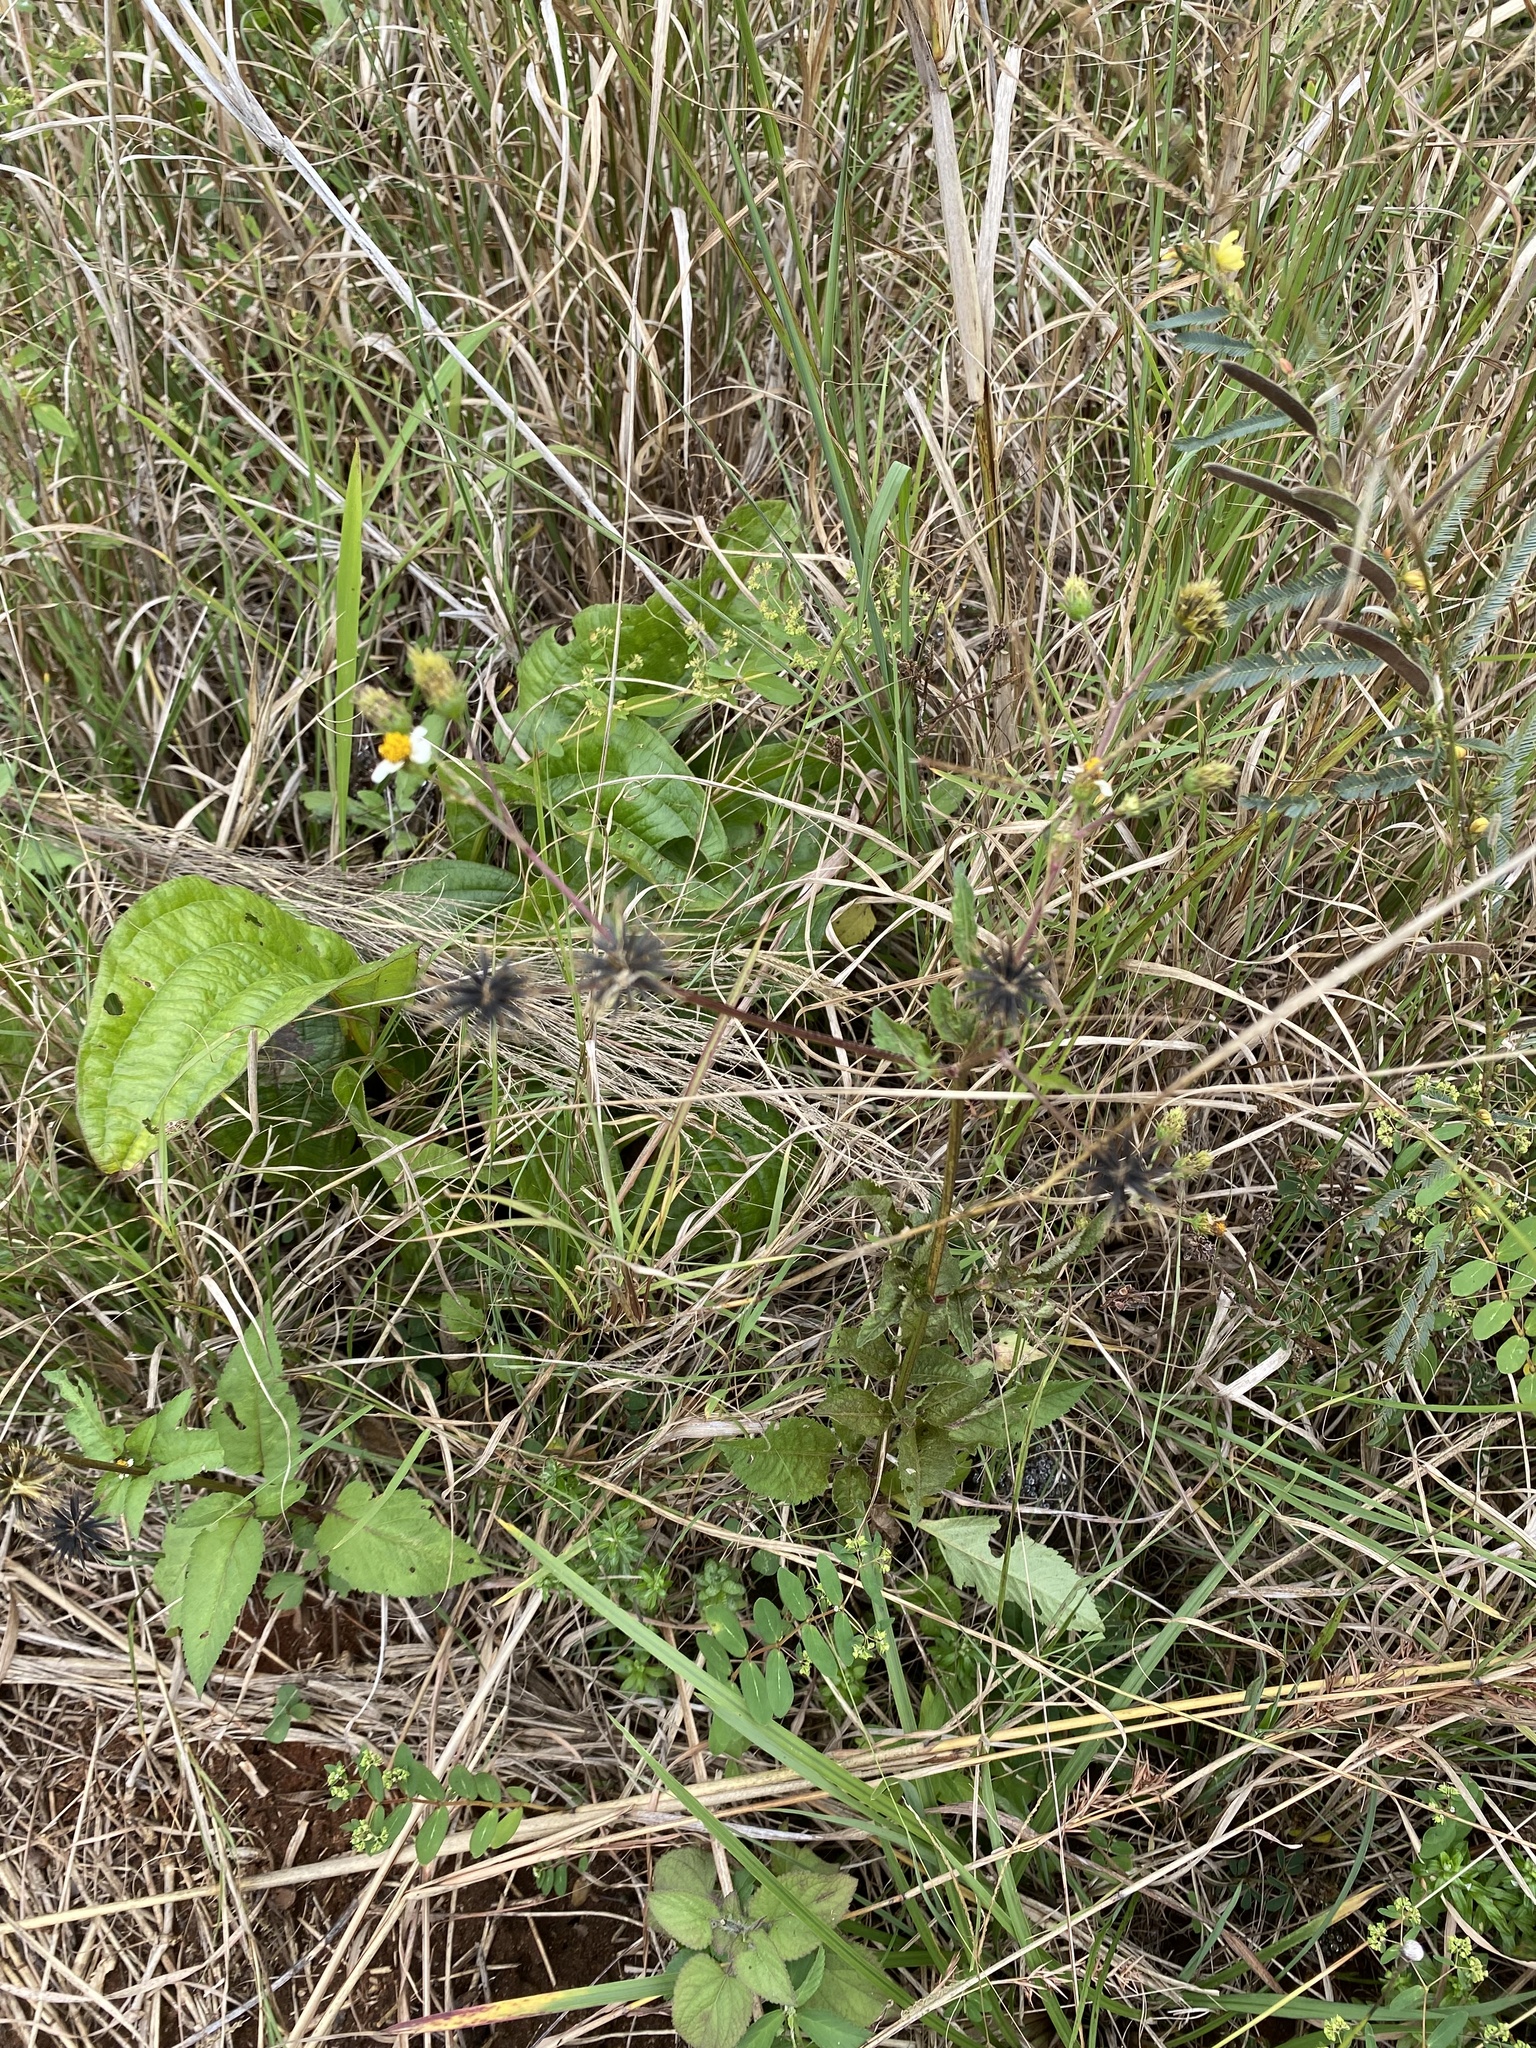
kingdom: Plantae
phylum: Tracheophyta
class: Magnoliopsida
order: Asterales
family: Asteraceae
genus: Bidens
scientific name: Bidens pilosa
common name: Black-jack
